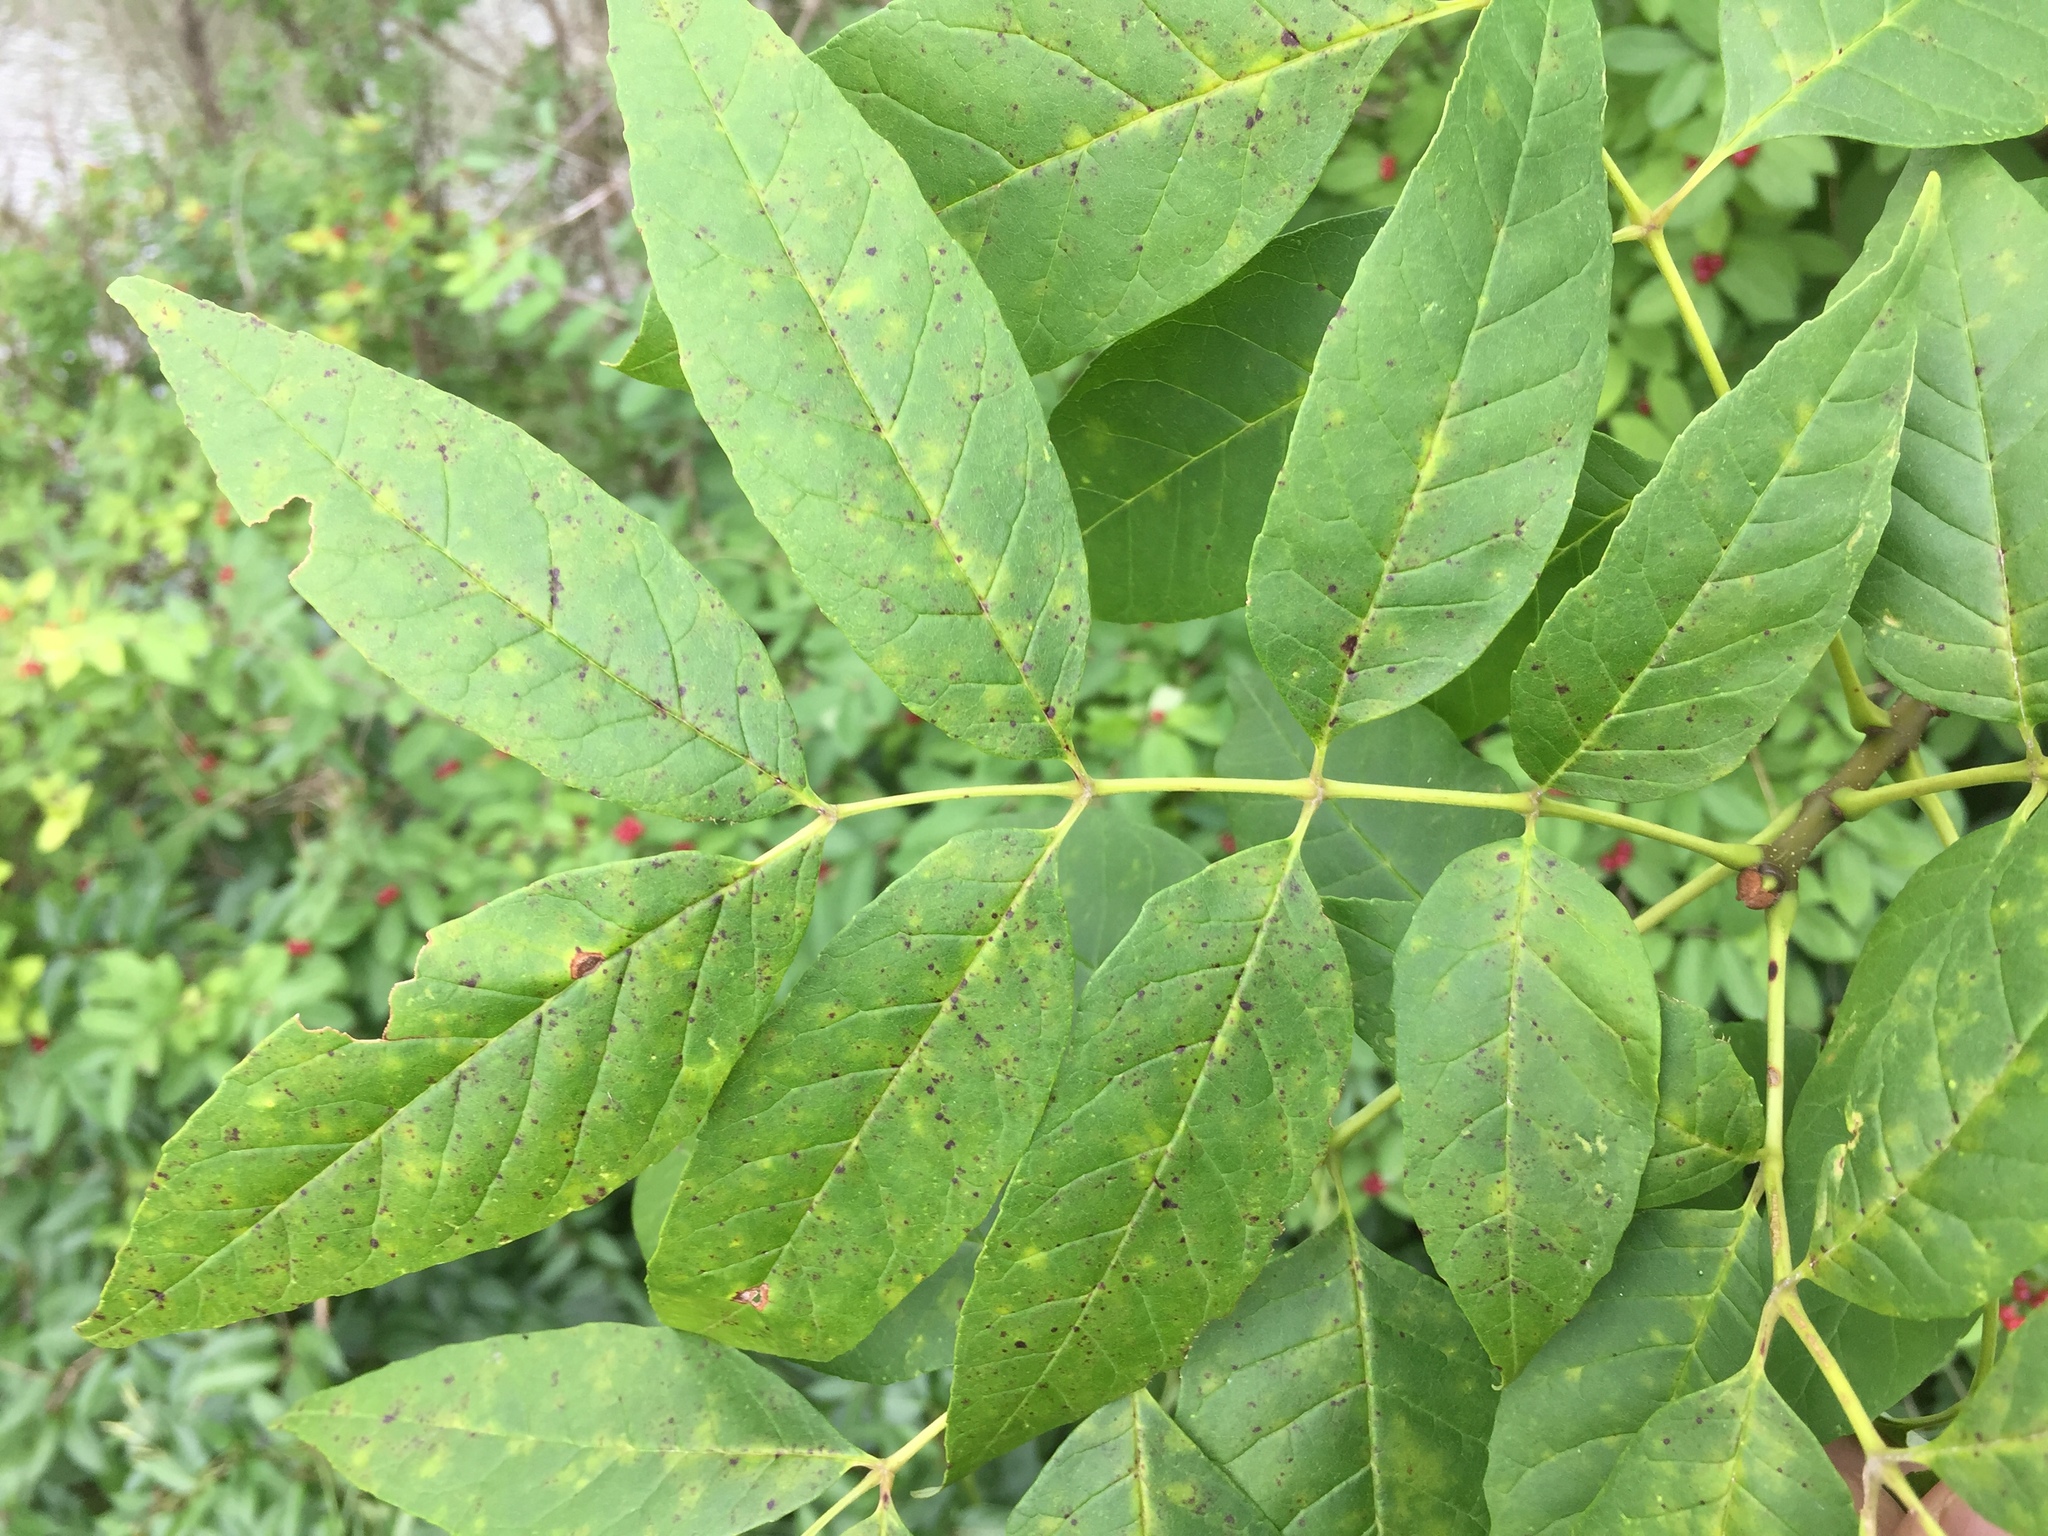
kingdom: Plantae
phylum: Tracheophyta
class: Magnoliopsida
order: Lamiales
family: Oleaceae
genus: Fraxinus
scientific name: Fraxinus americana
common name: White ash
